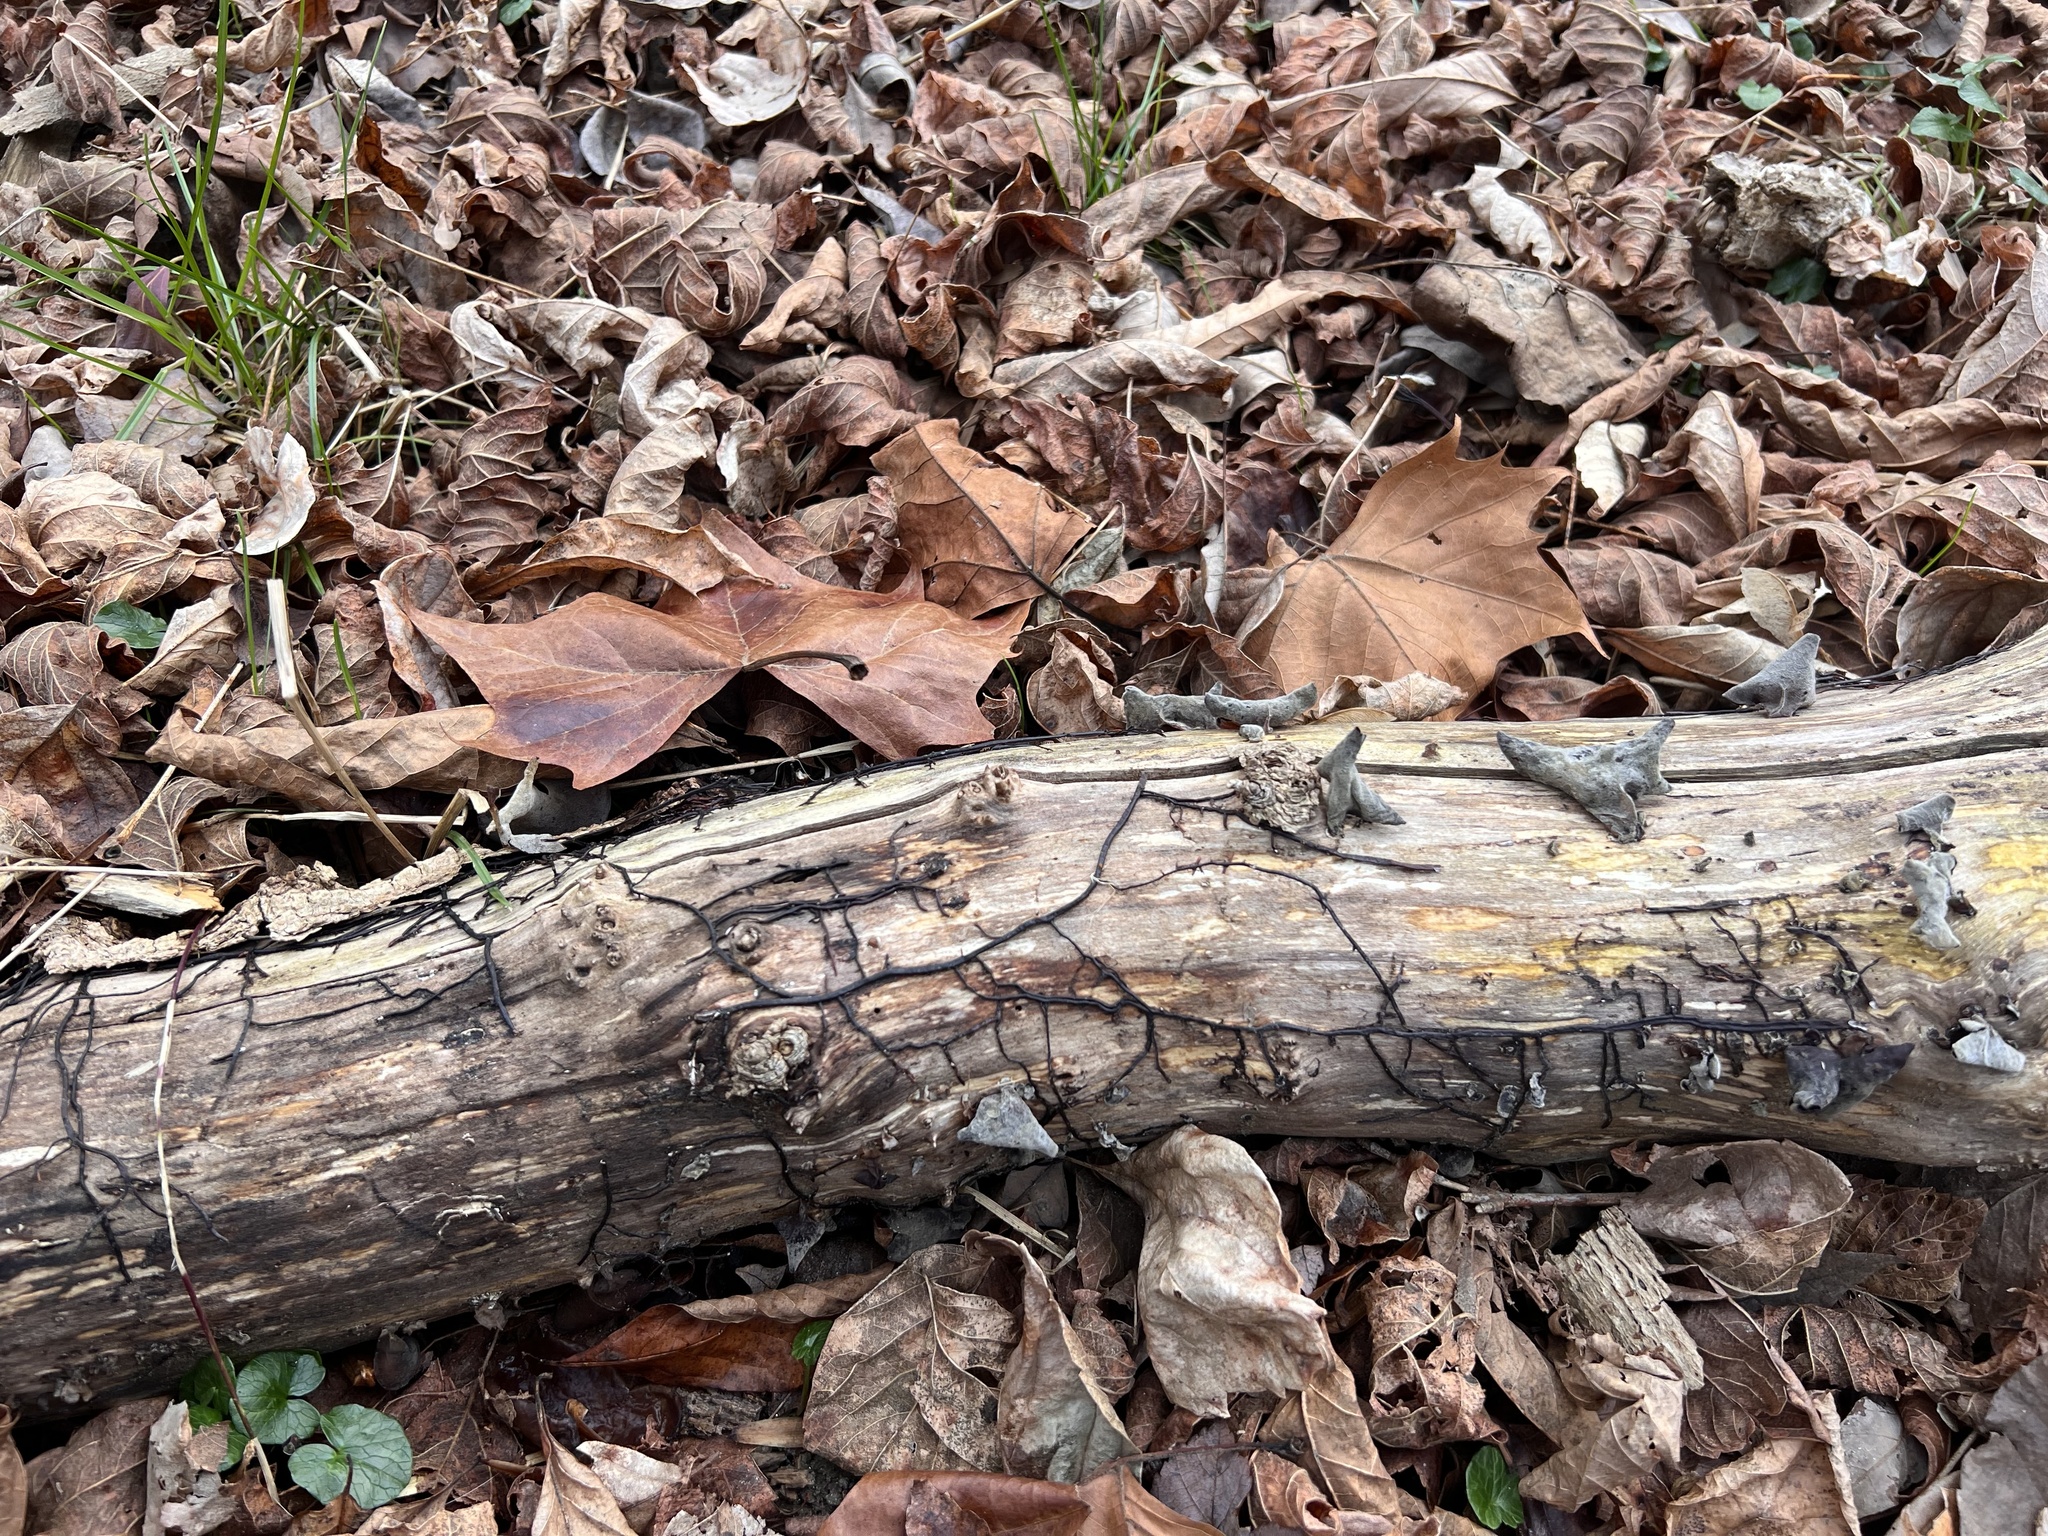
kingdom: Fungi
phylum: Basidiomycota
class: Agaricomycetes
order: Agaricales
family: Physalacriaceae
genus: Armillaria
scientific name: Armillaria
